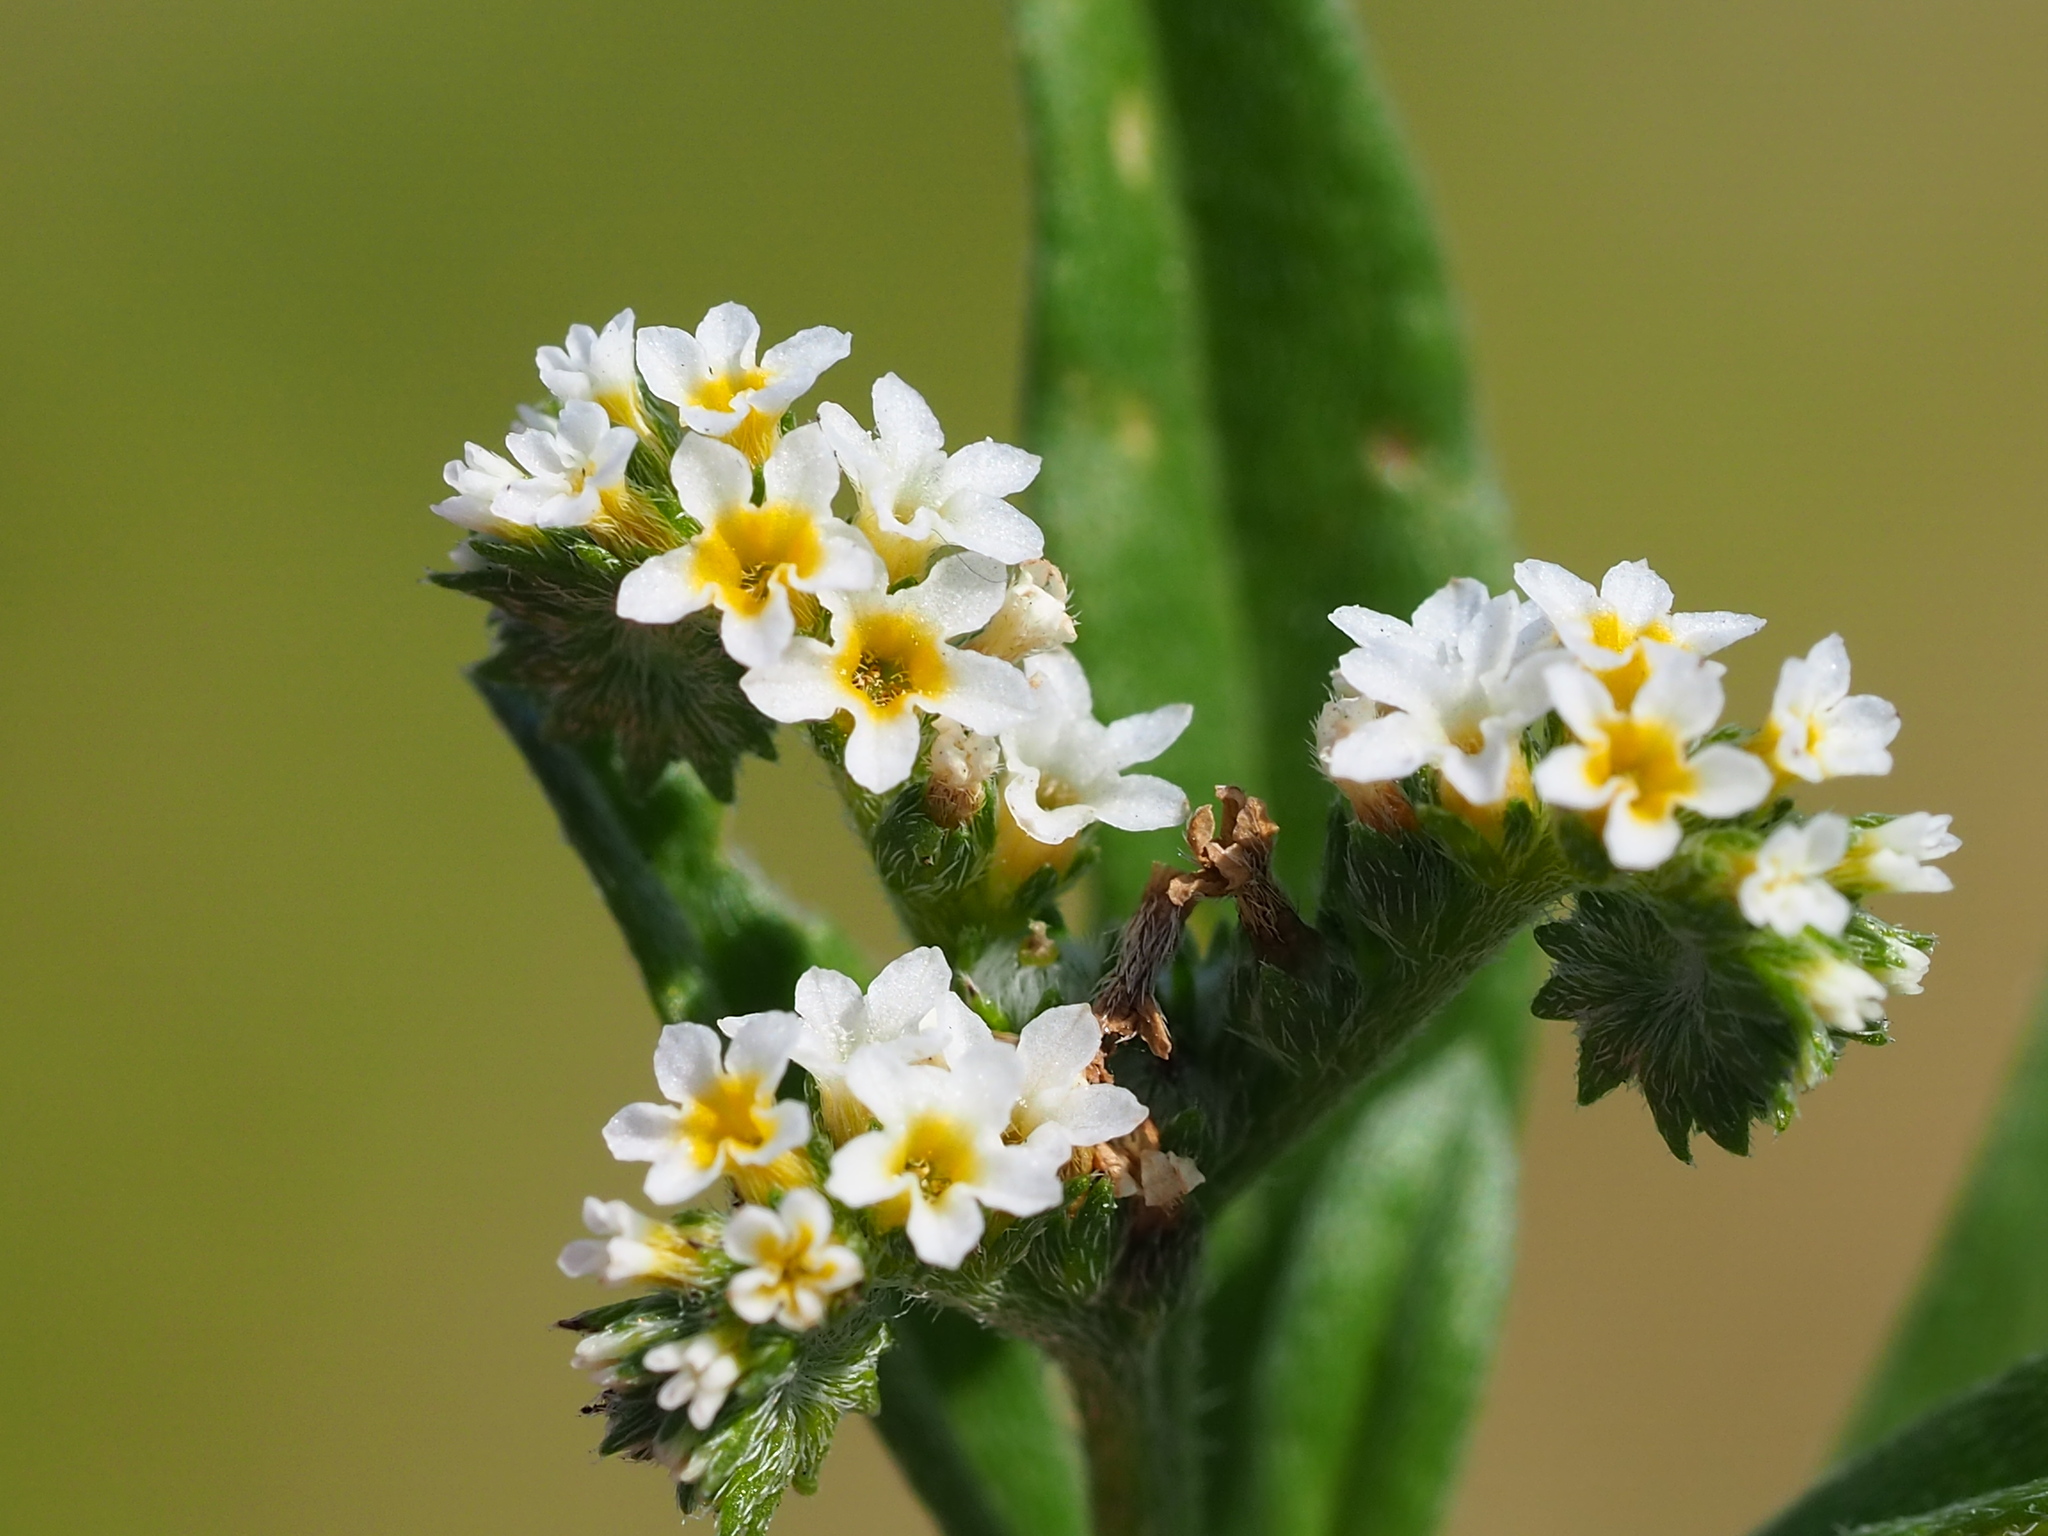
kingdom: Plantae
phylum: Tracheophyta
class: Magnoliopsida
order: Boraginales
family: Heliotropiaceae
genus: Euploca
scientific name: Euploca procumbens
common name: Fourspike heliotrope
